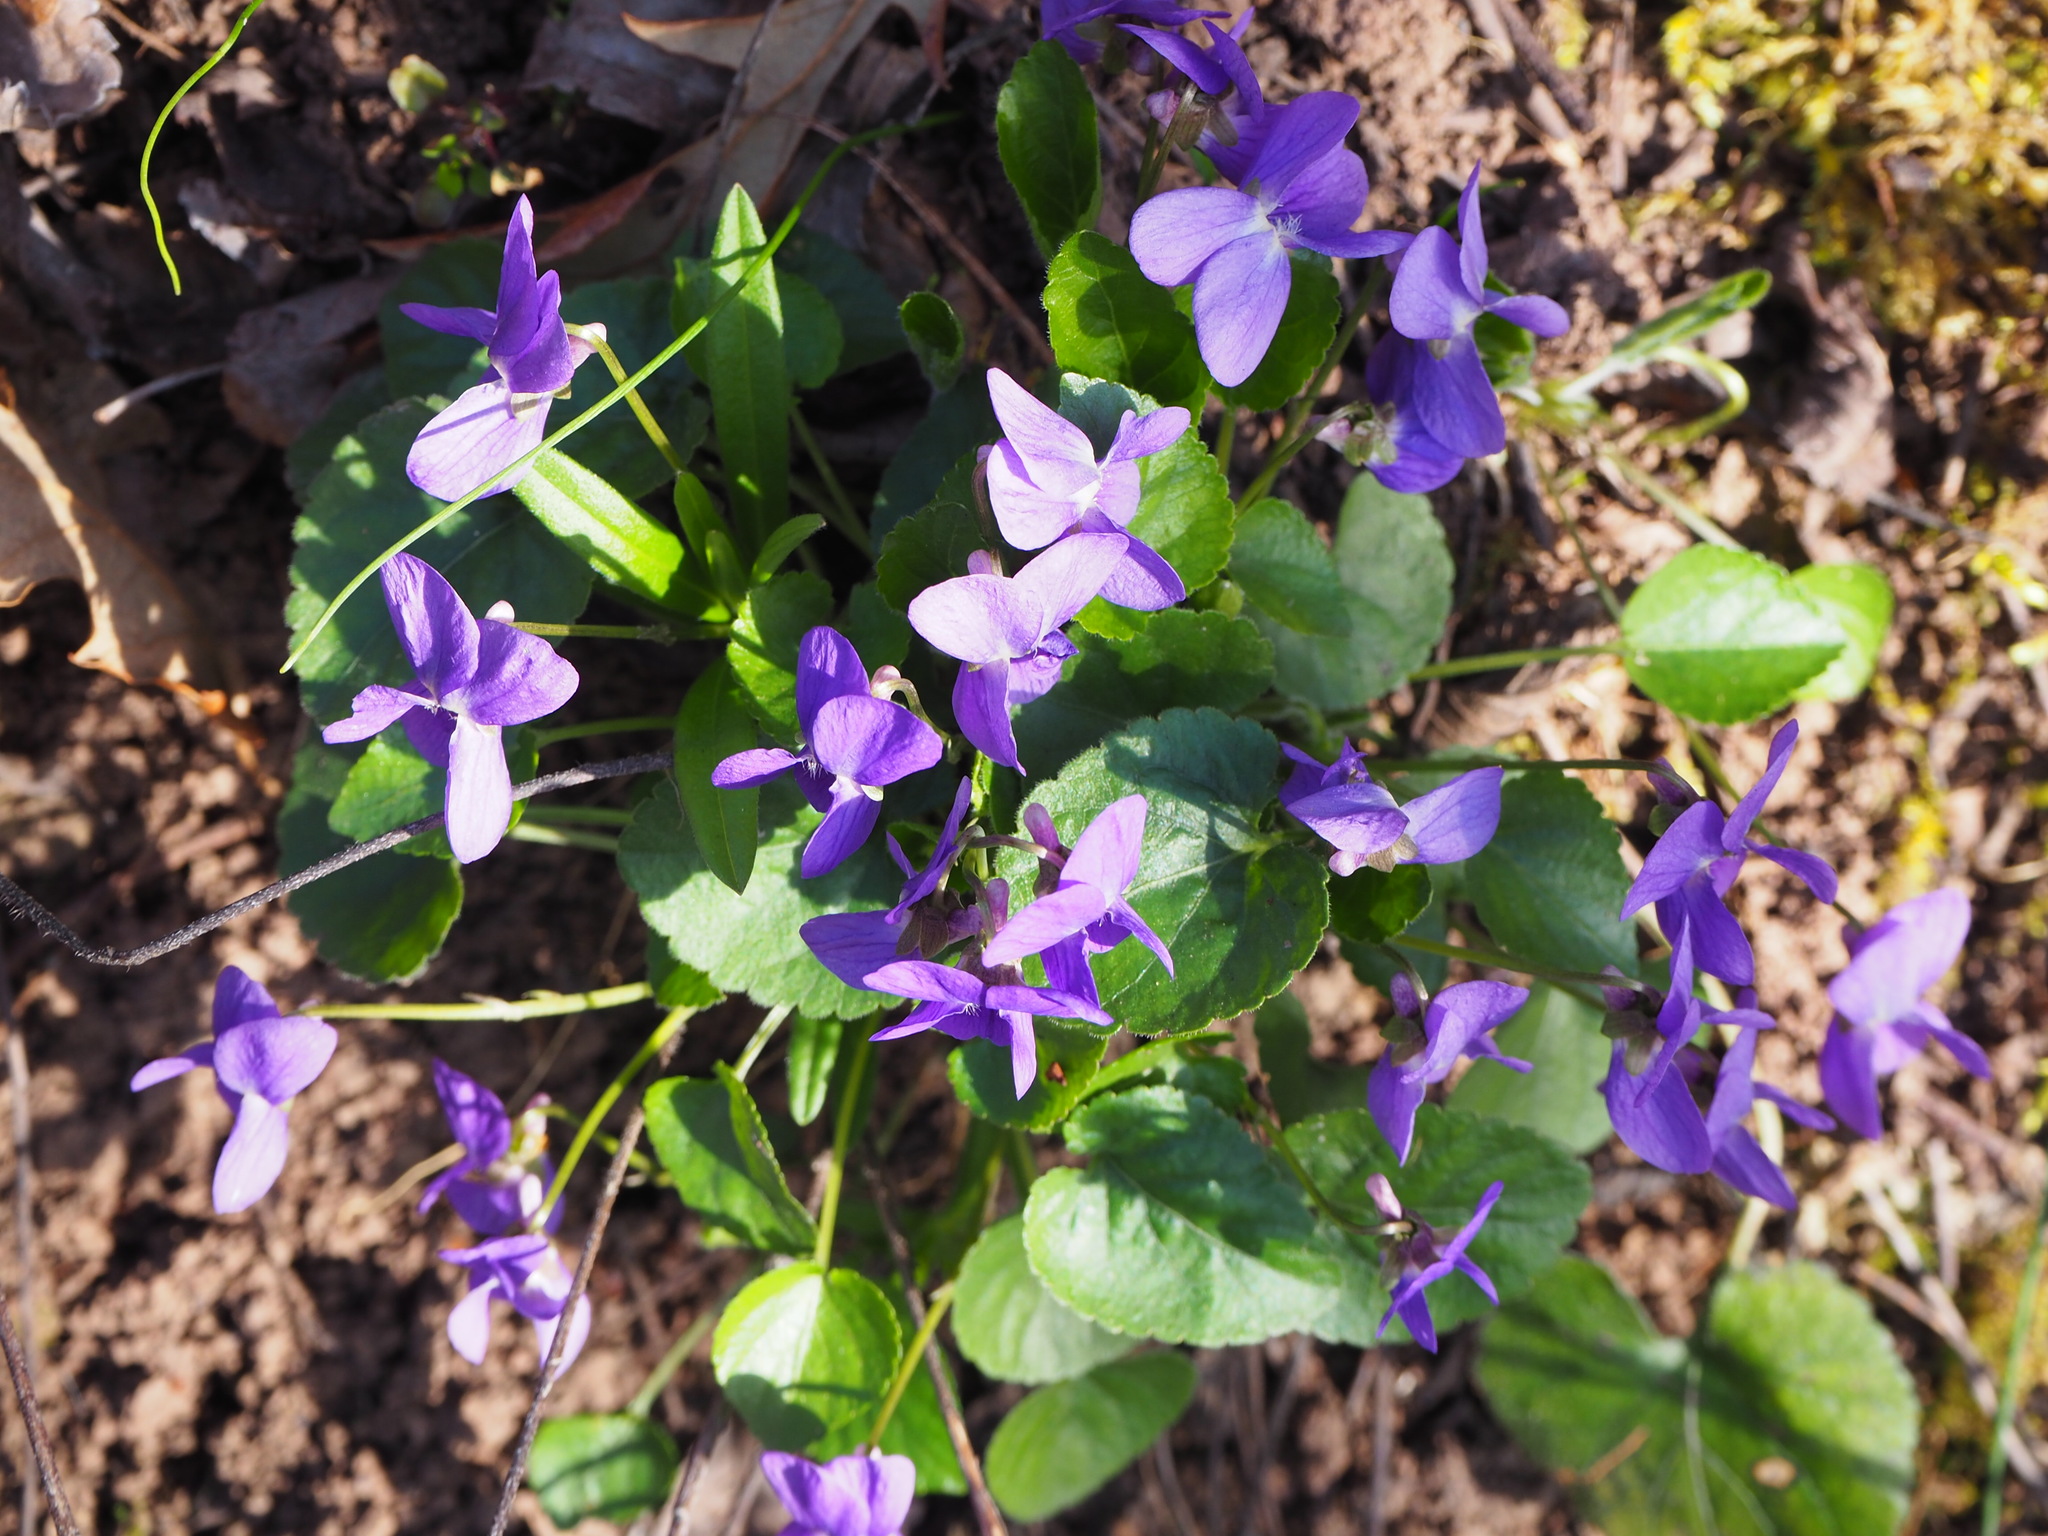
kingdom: Plantae
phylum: Tracheophyta
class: Magnoliopsida
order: Malpighiales
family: Violaceae
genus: Viola
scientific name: Viola odorata
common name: Sweet violet
